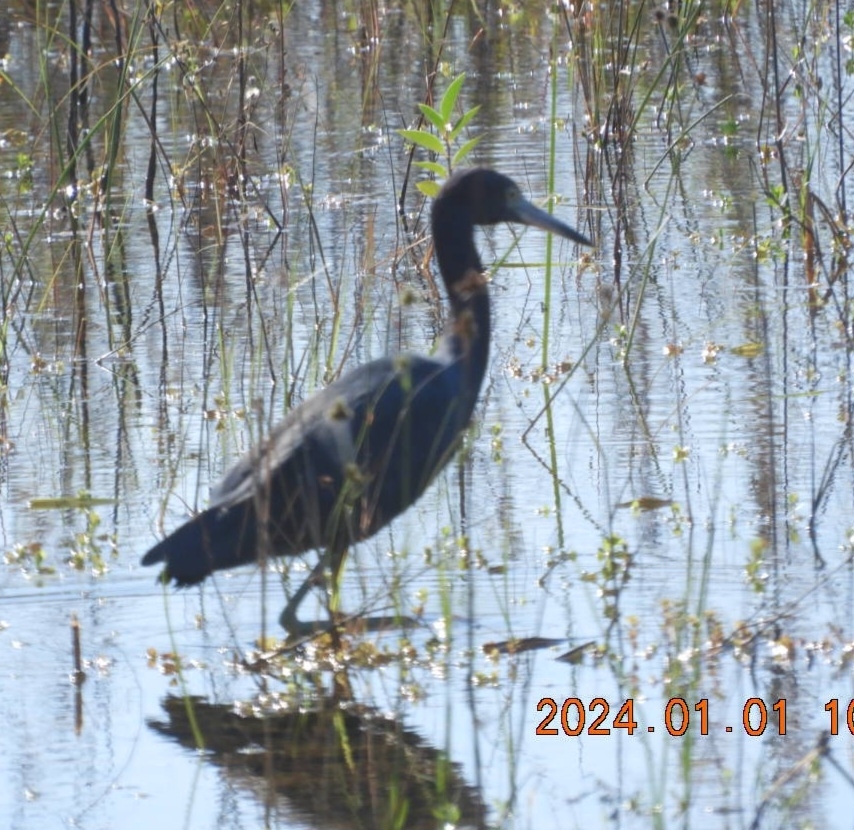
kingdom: Animalia
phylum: Chordata
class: Aves
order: Pelecaniformes
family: Ardeidae
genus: Egretta
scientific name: Egretta caerulea
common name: Little blue heron
